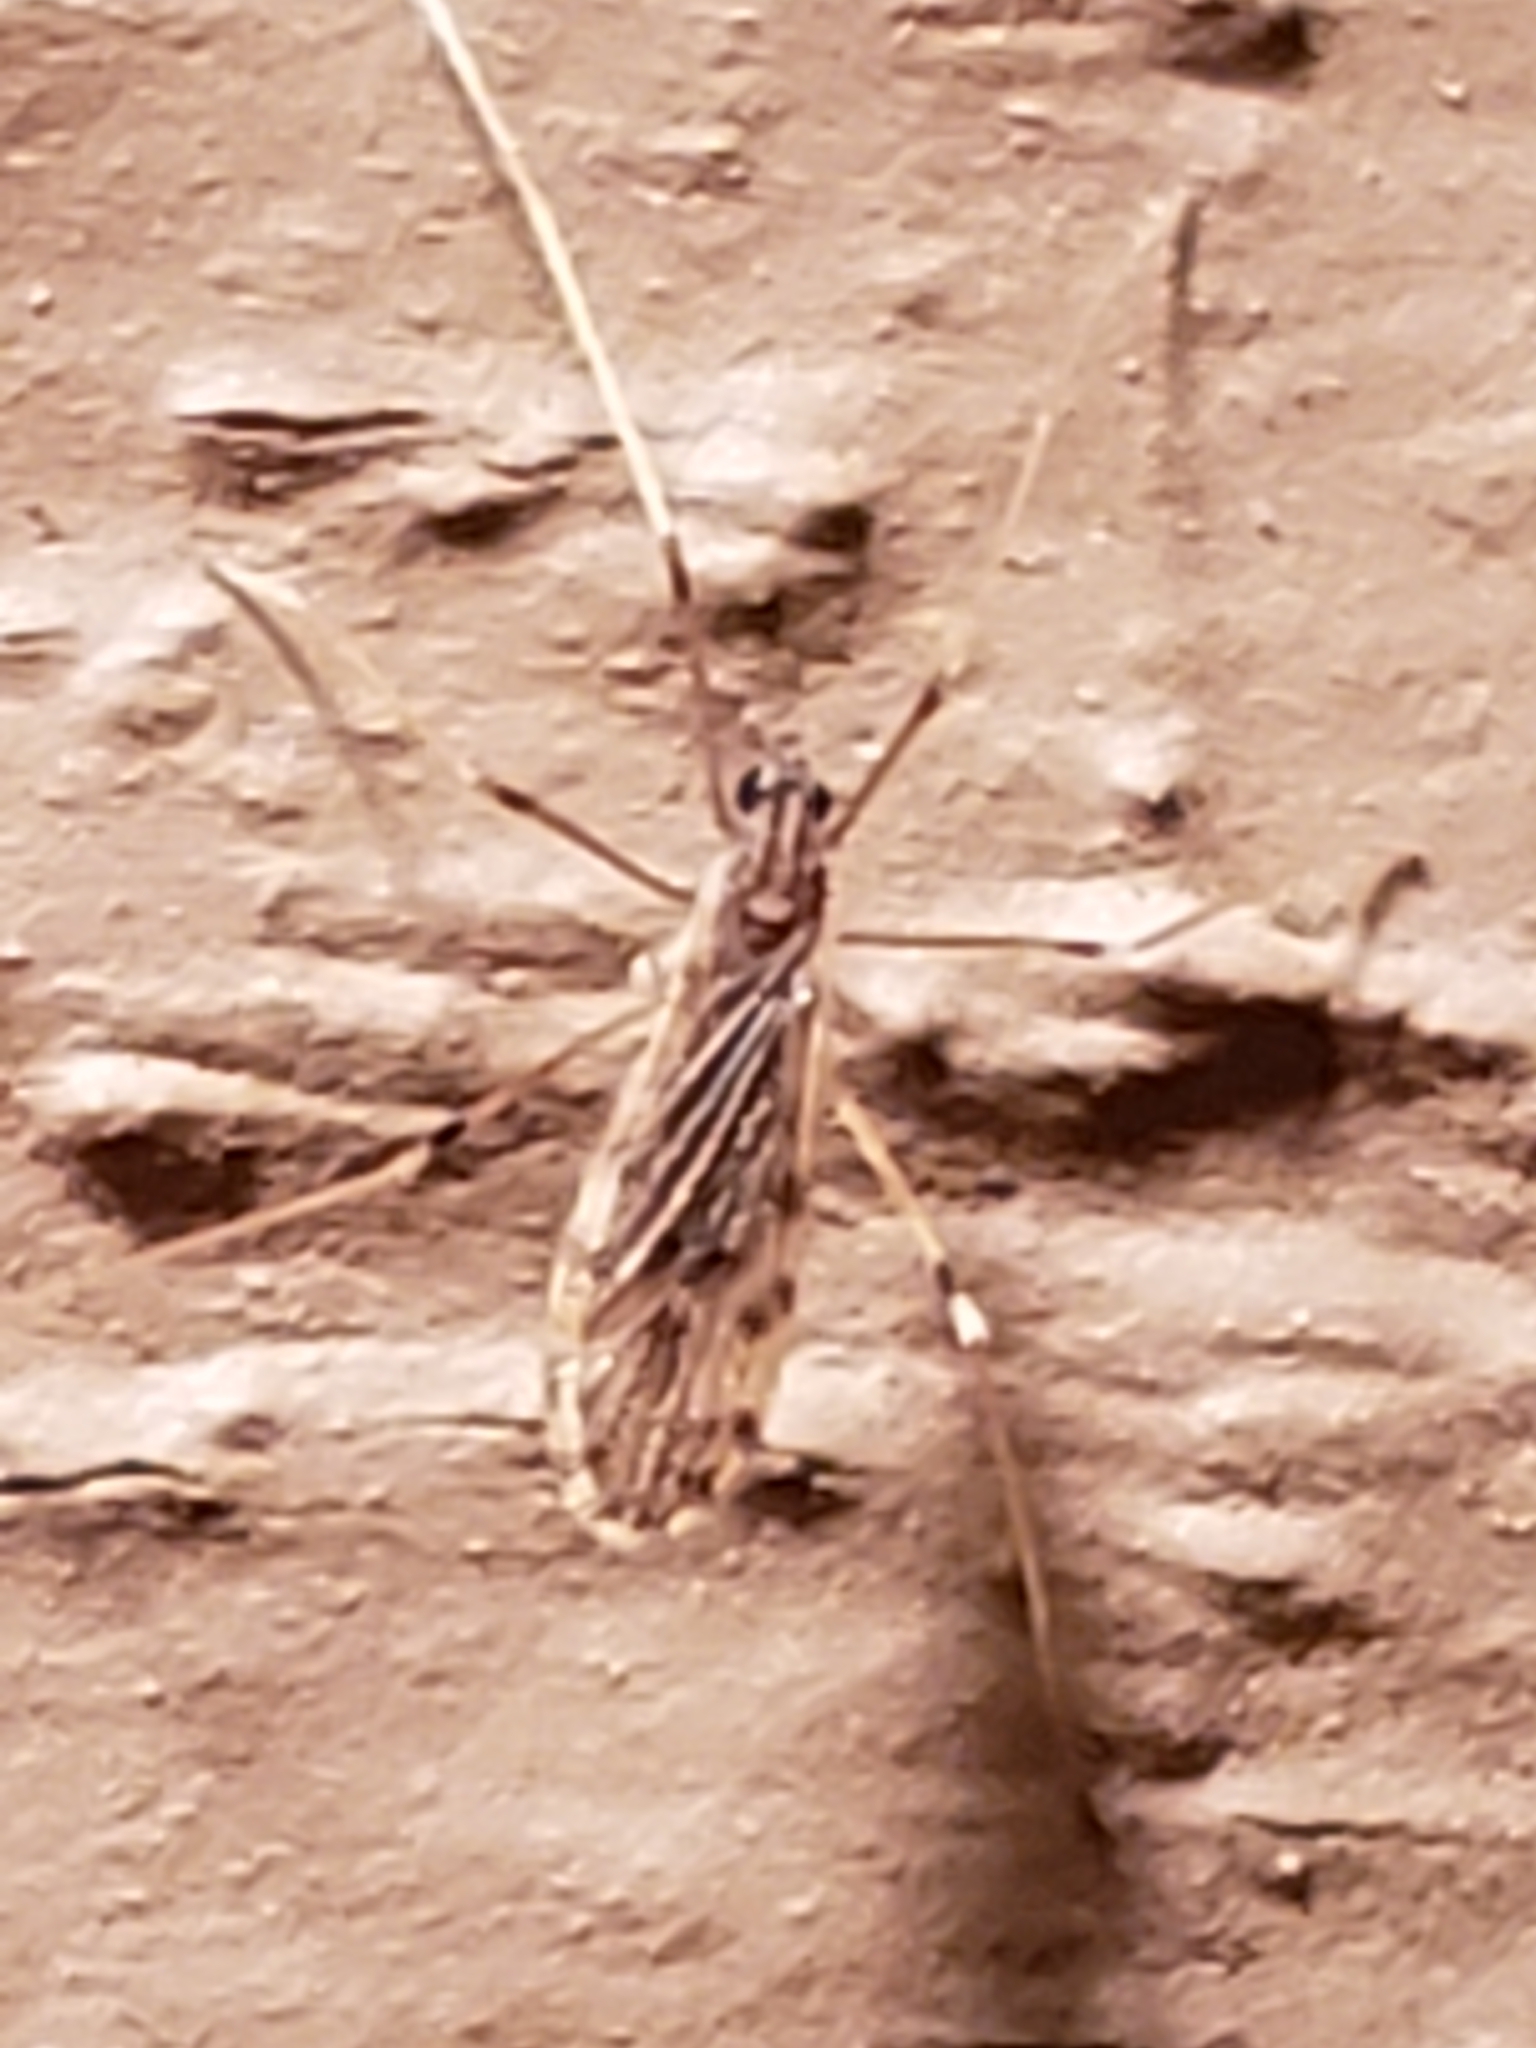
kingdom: Animalia
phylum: Arthropoda
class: Insecta
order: Diptera
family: Limoniidae
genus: Erioptera
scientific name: Erioptera parva
